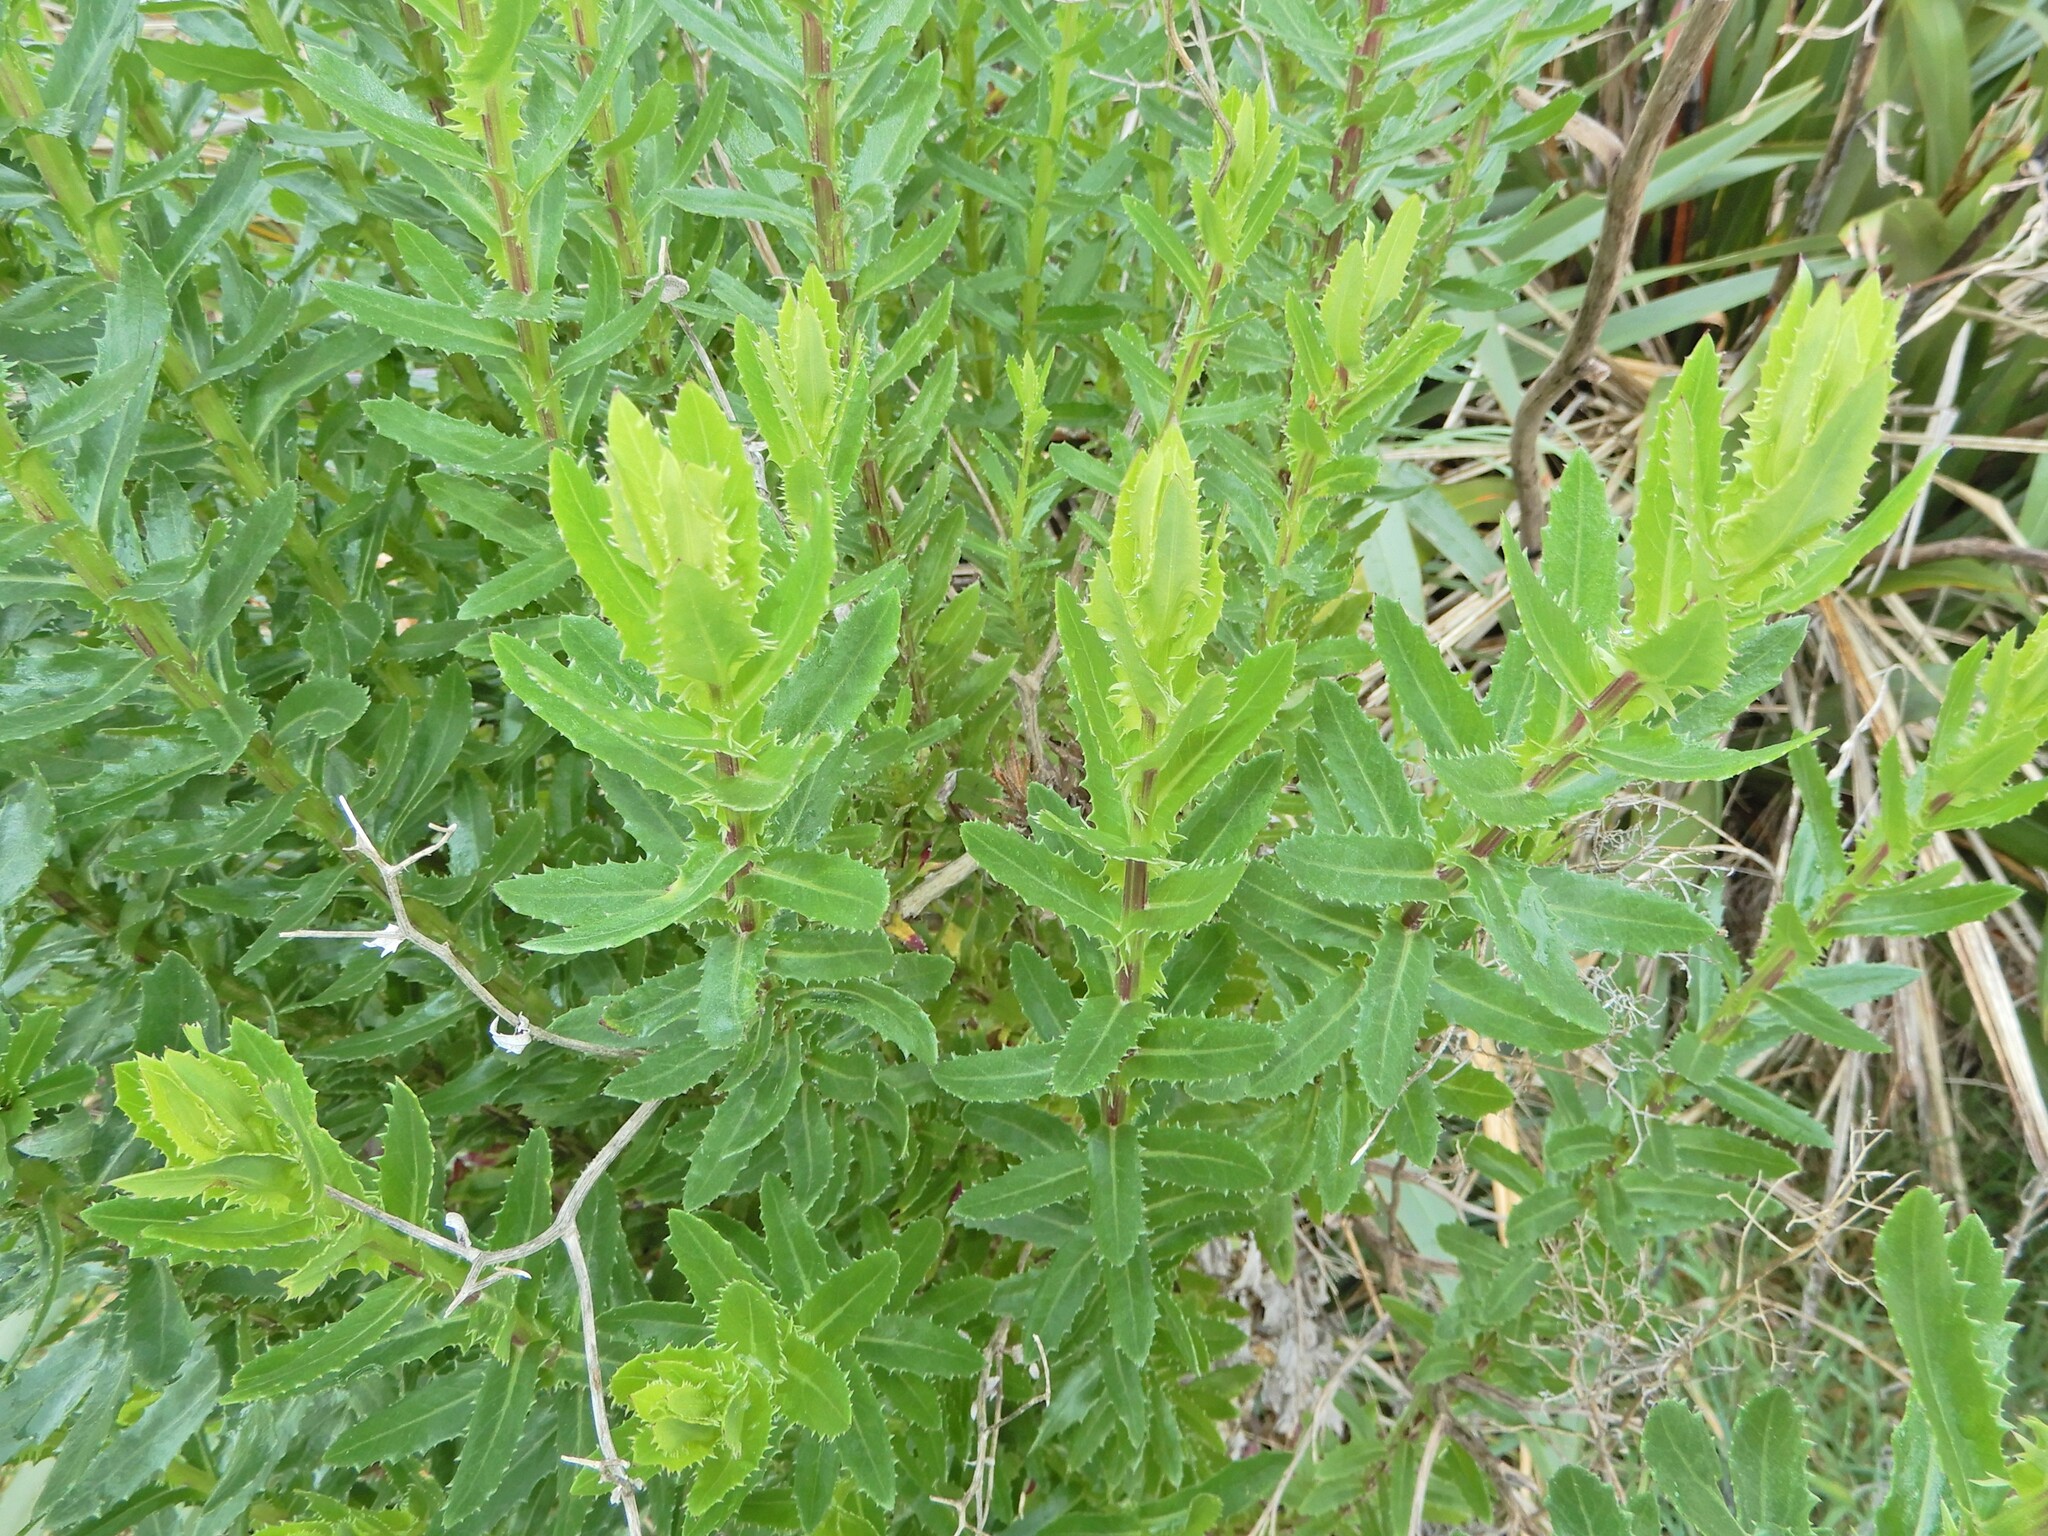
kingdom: Plantae
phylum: Tracheophyta
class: Magnoliopsida
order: Asterales
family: Asteraceae
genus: Senecio
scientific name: Senecio glastifolius
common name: Woad-leaved ragwort
